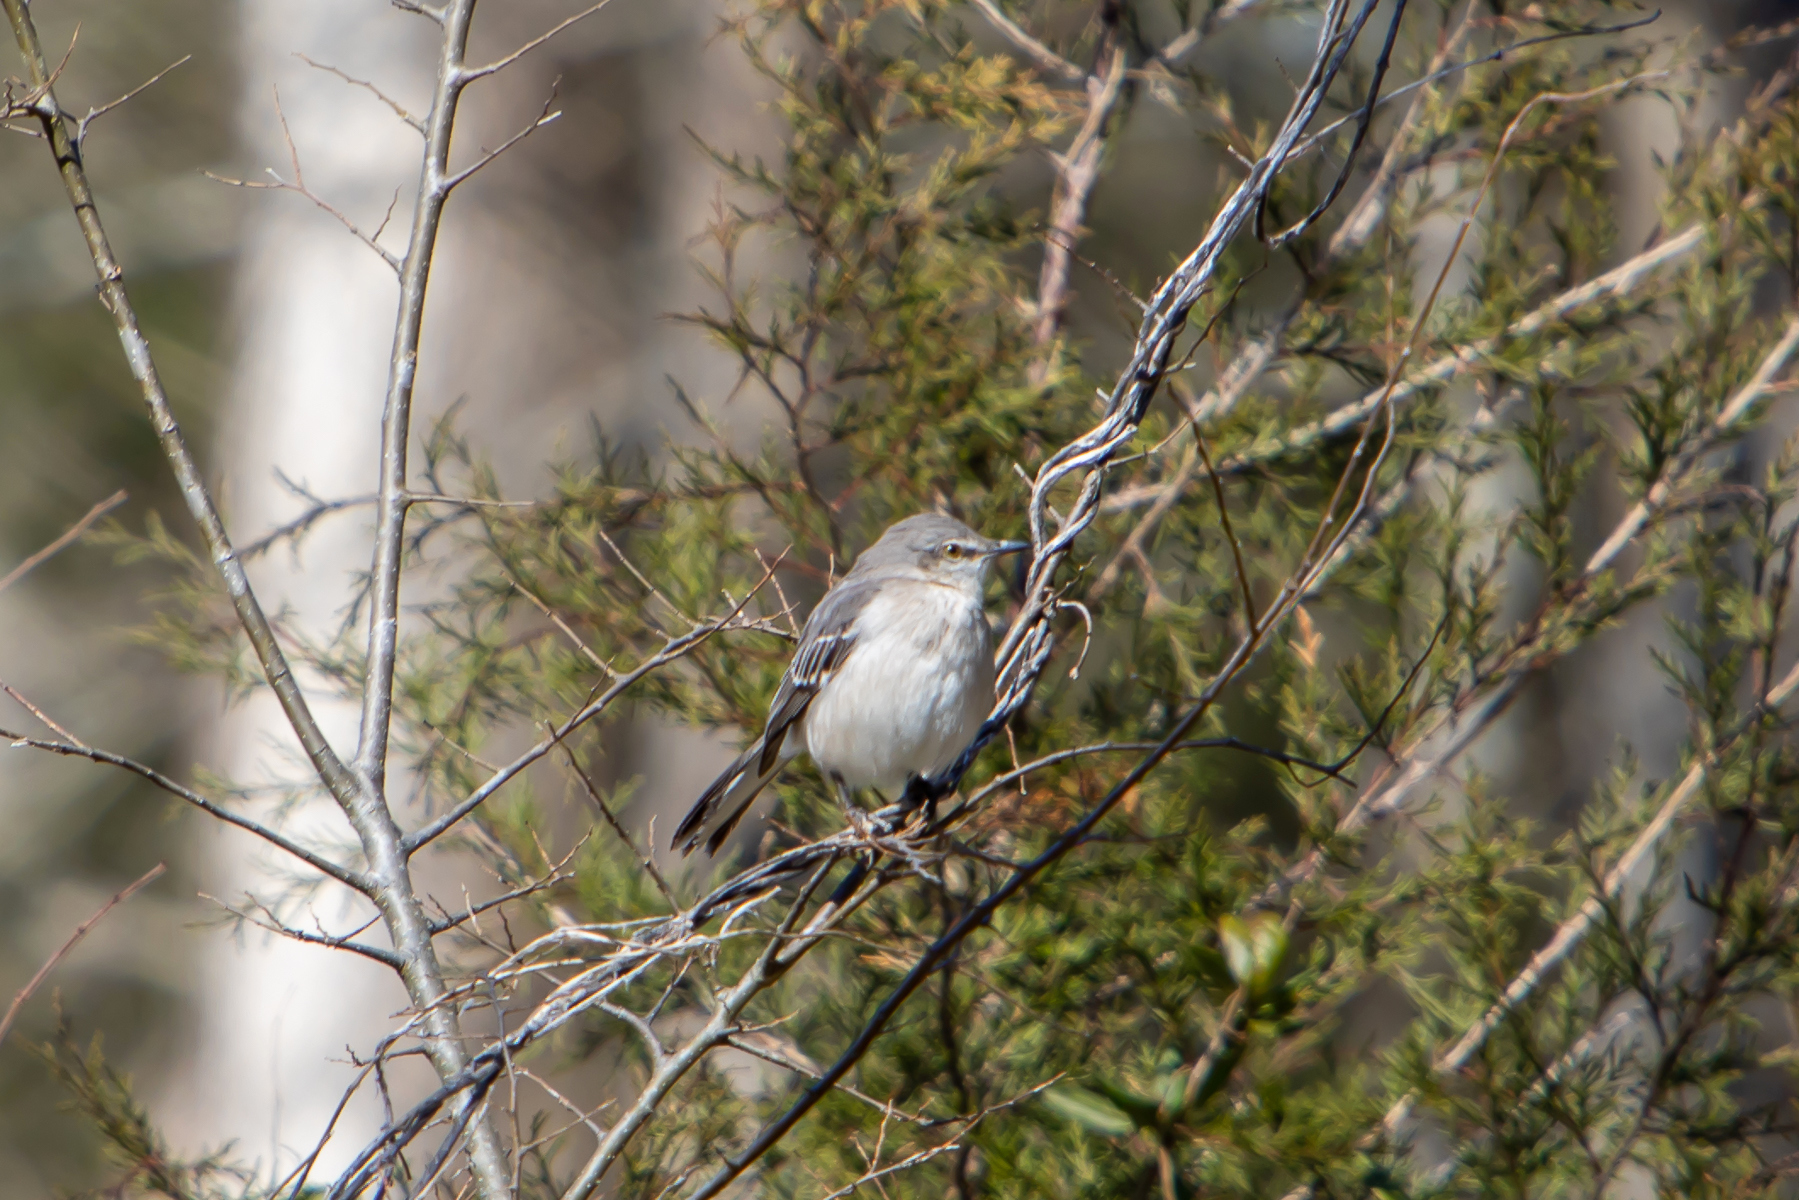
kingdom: Animalia
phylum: Chordata
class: Aves
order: Passeriformes
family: Mimidae
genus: Mimus
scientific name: Mimus polyglottos
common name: Northern mockingbird
